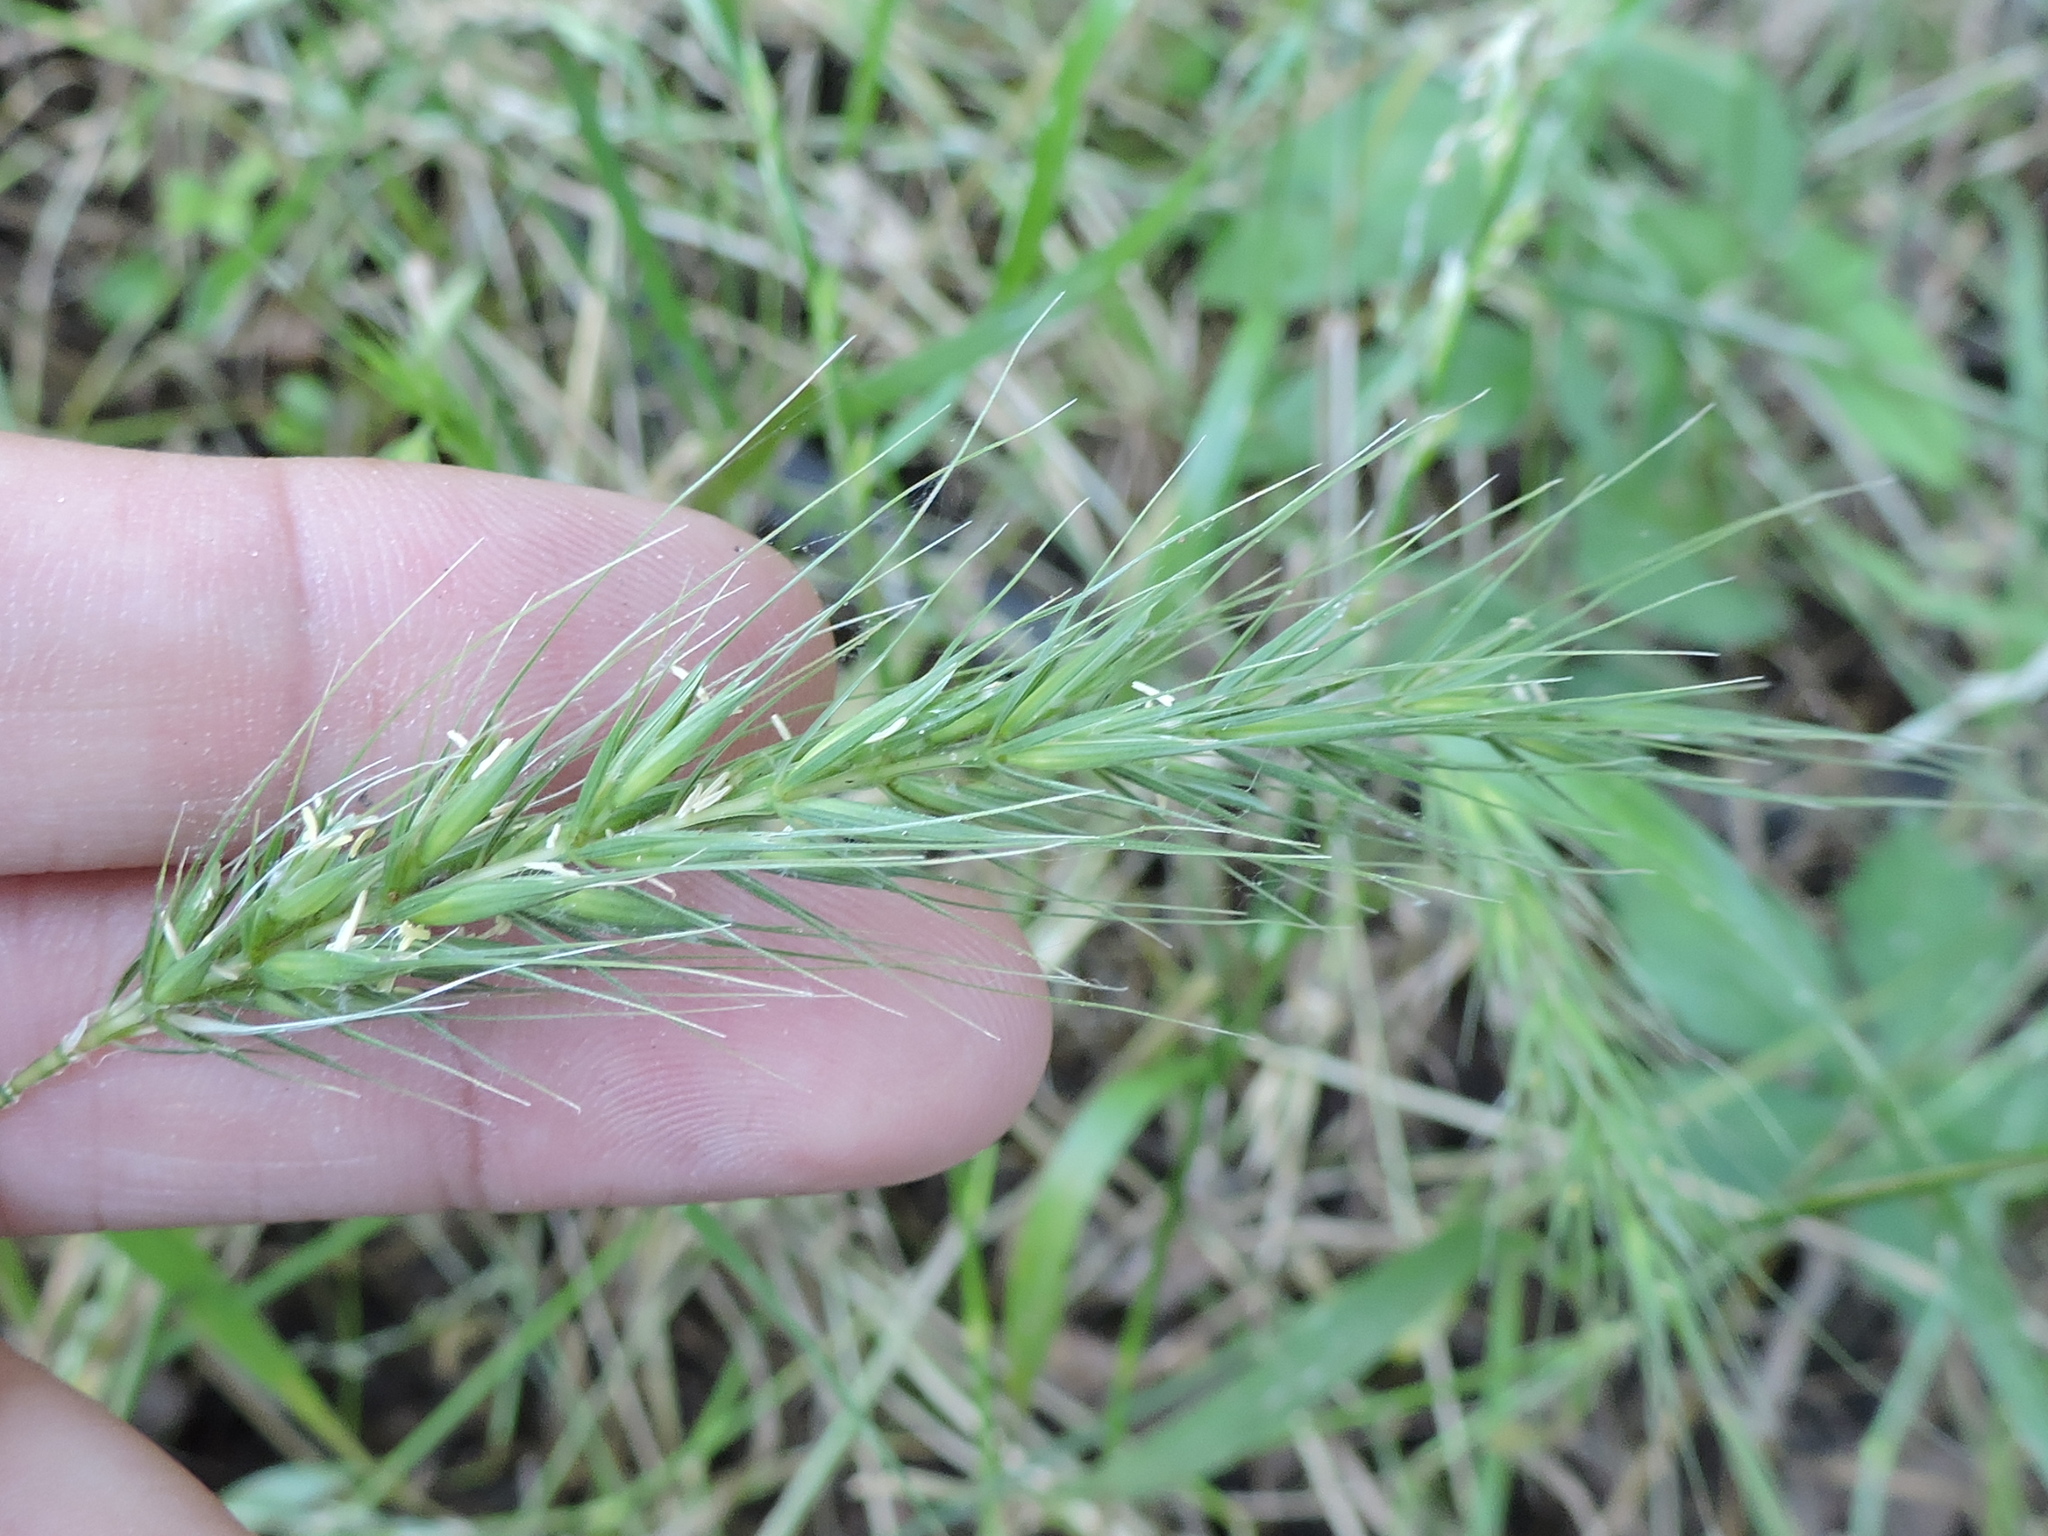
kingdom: Plantae
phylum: Tracheophyta
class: Liliopsida
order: Poales
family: Poaceae
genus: Elymus
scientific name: Elymus canadensis
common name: Canada wild rye
